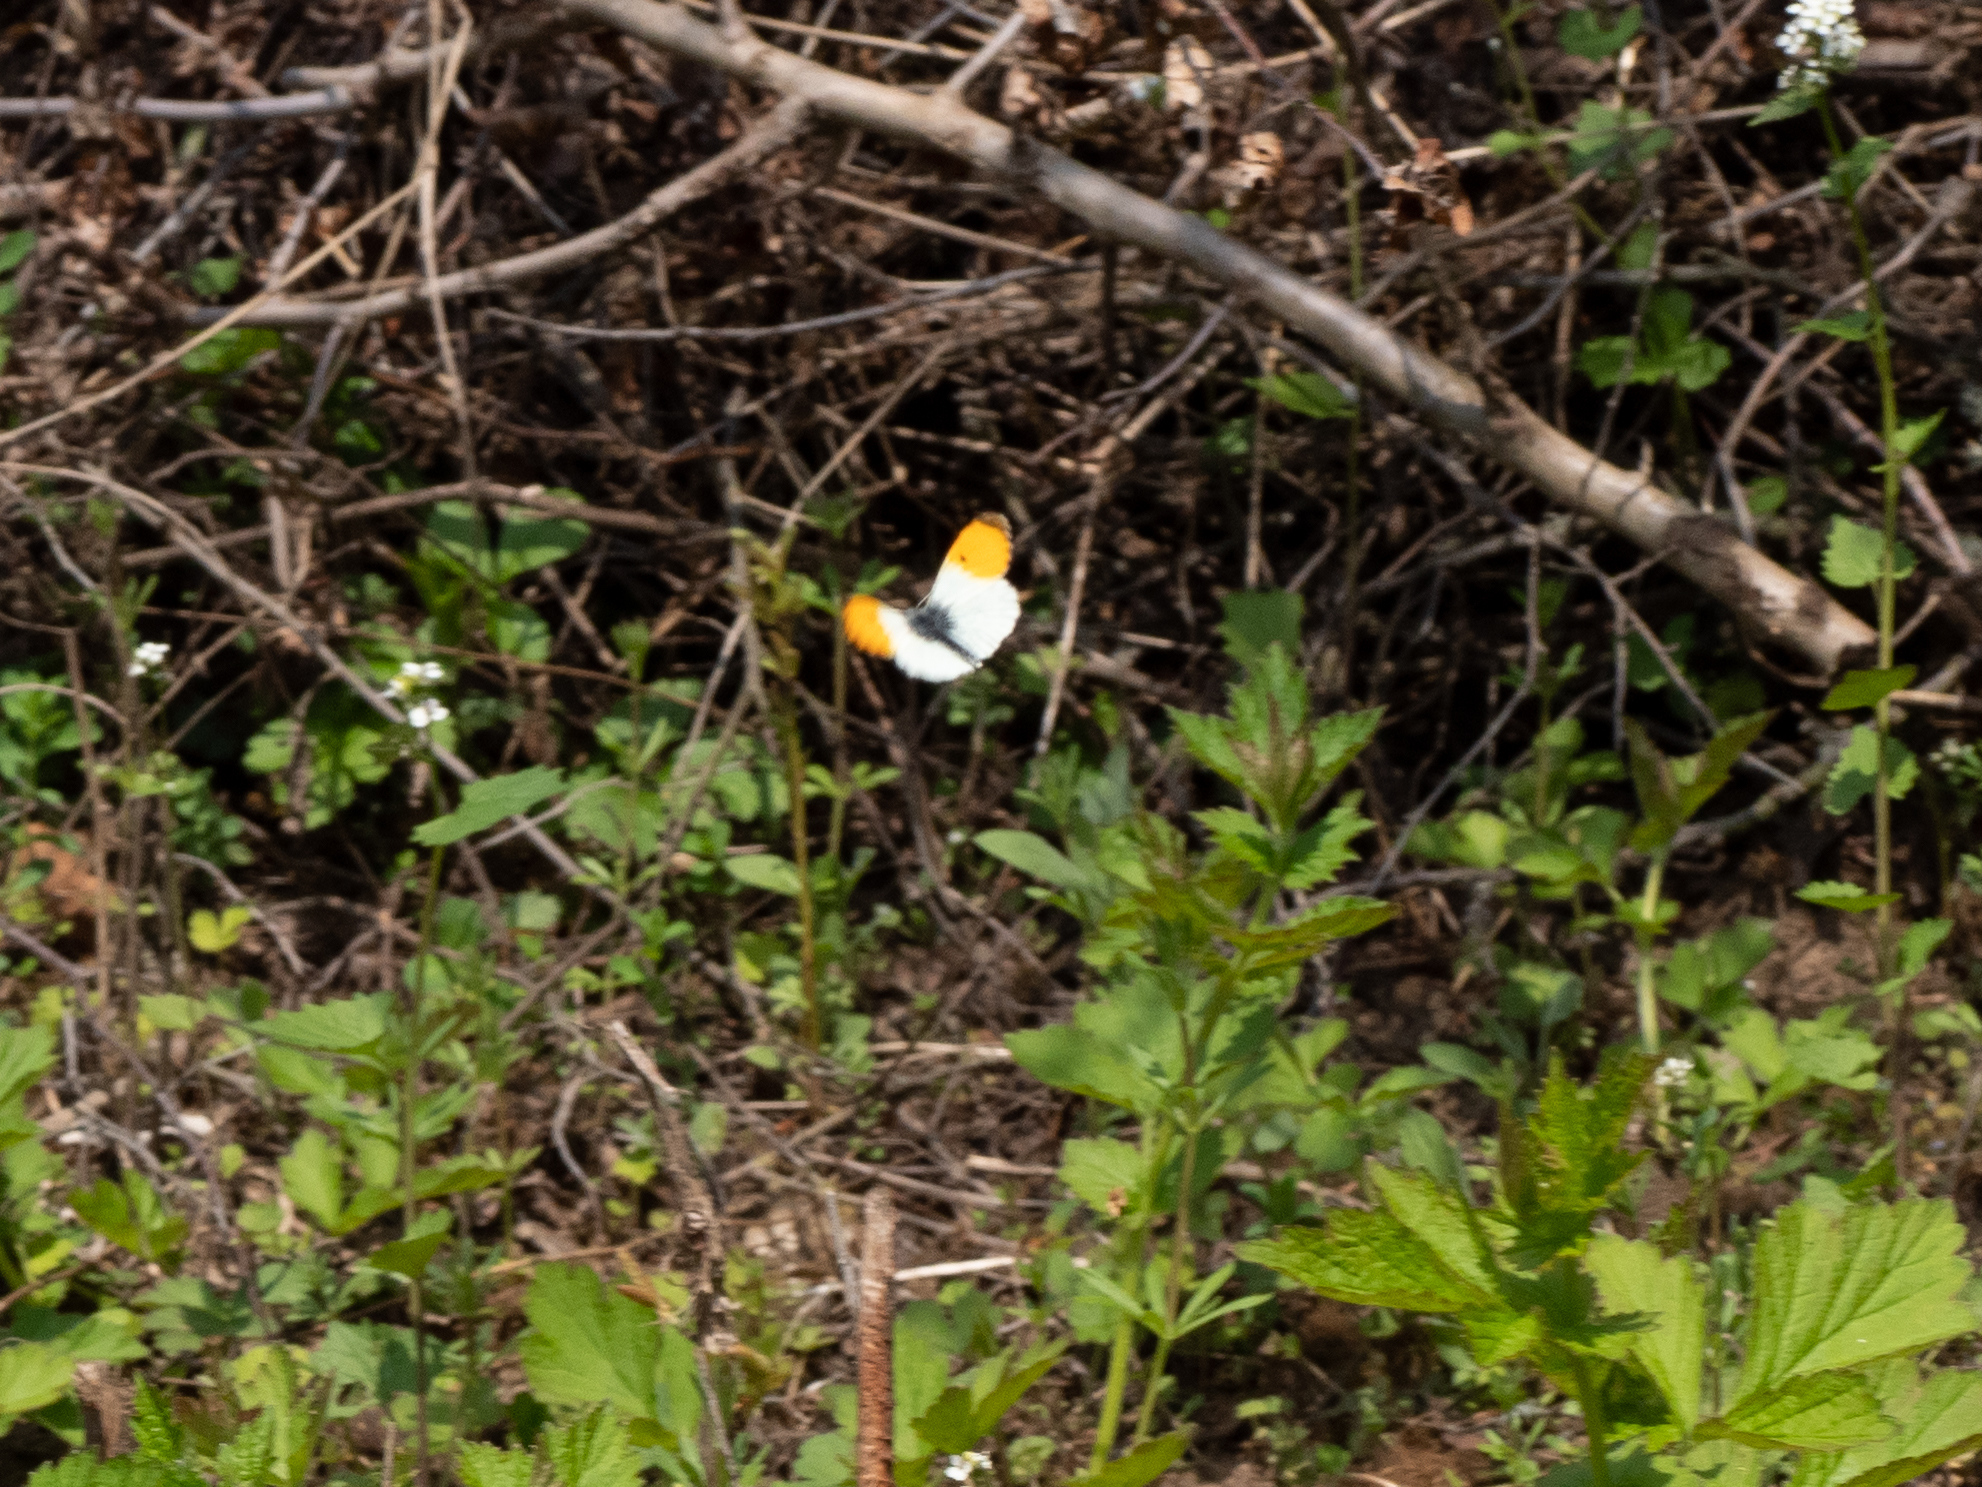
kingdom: Animalia
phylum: Arthropoda
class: Insecta
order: Lepidoptera
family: Pieridae
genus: Anthocharis
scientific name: Anthocharis cardamines
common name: Orange-tip
